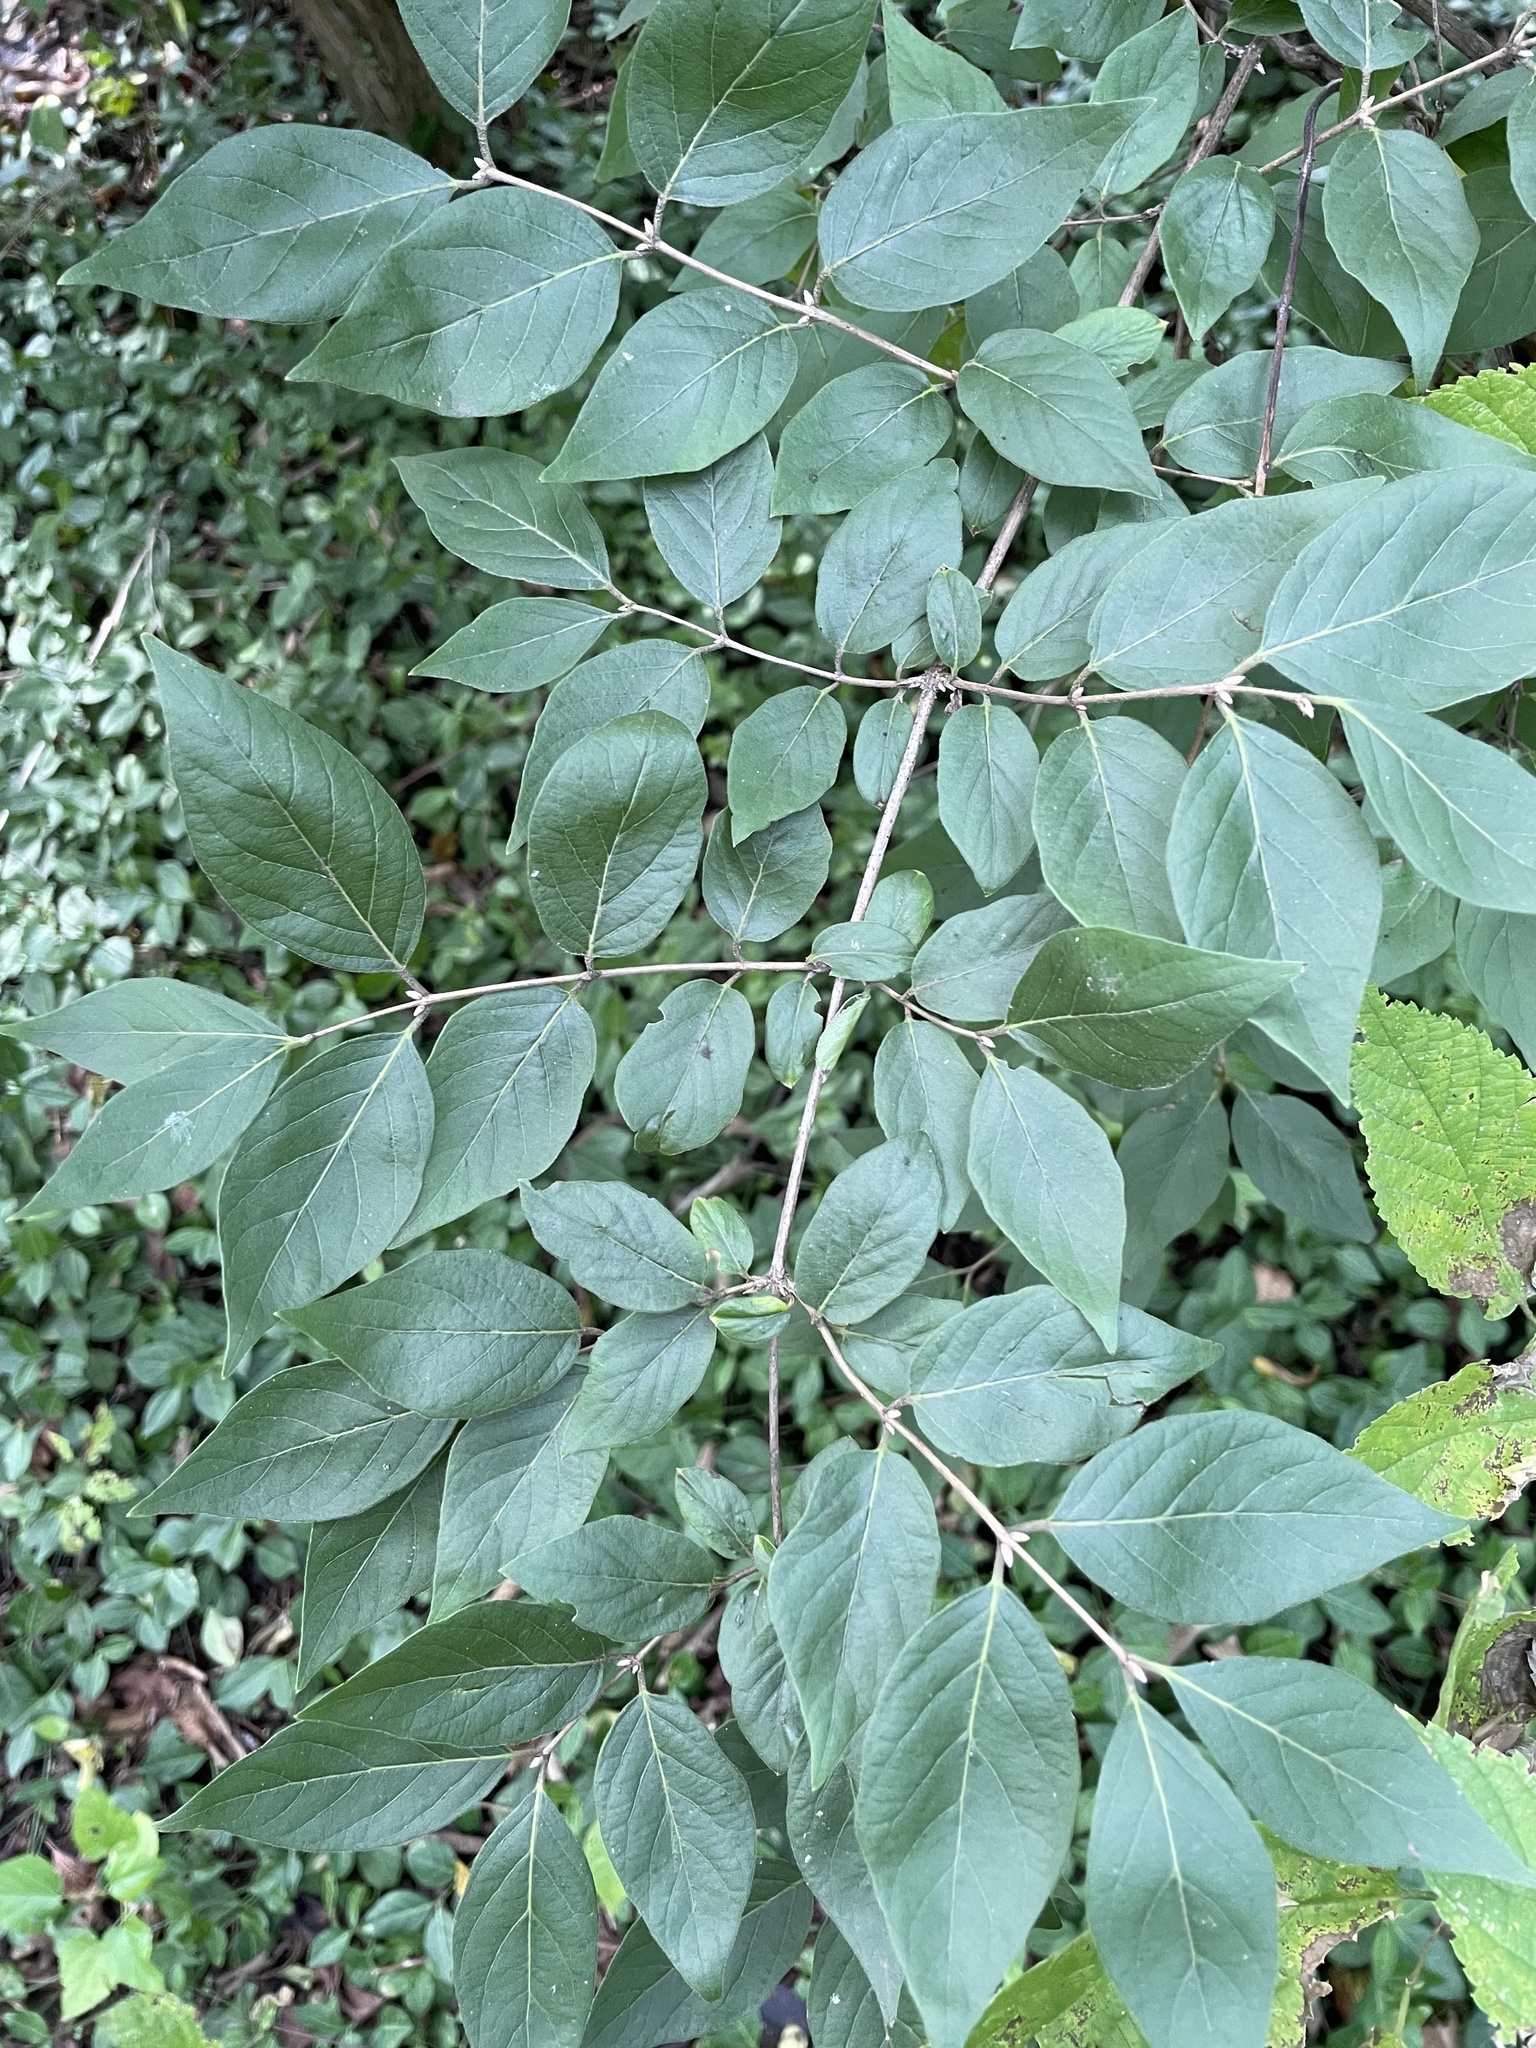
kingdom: Plantae
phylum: Tracheophyta
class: Magnoliopsida
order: Dipsacales
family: Caprifoliaceae
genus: Lonicera
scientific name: Lonicera maackii
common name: Amur honeysuckle
